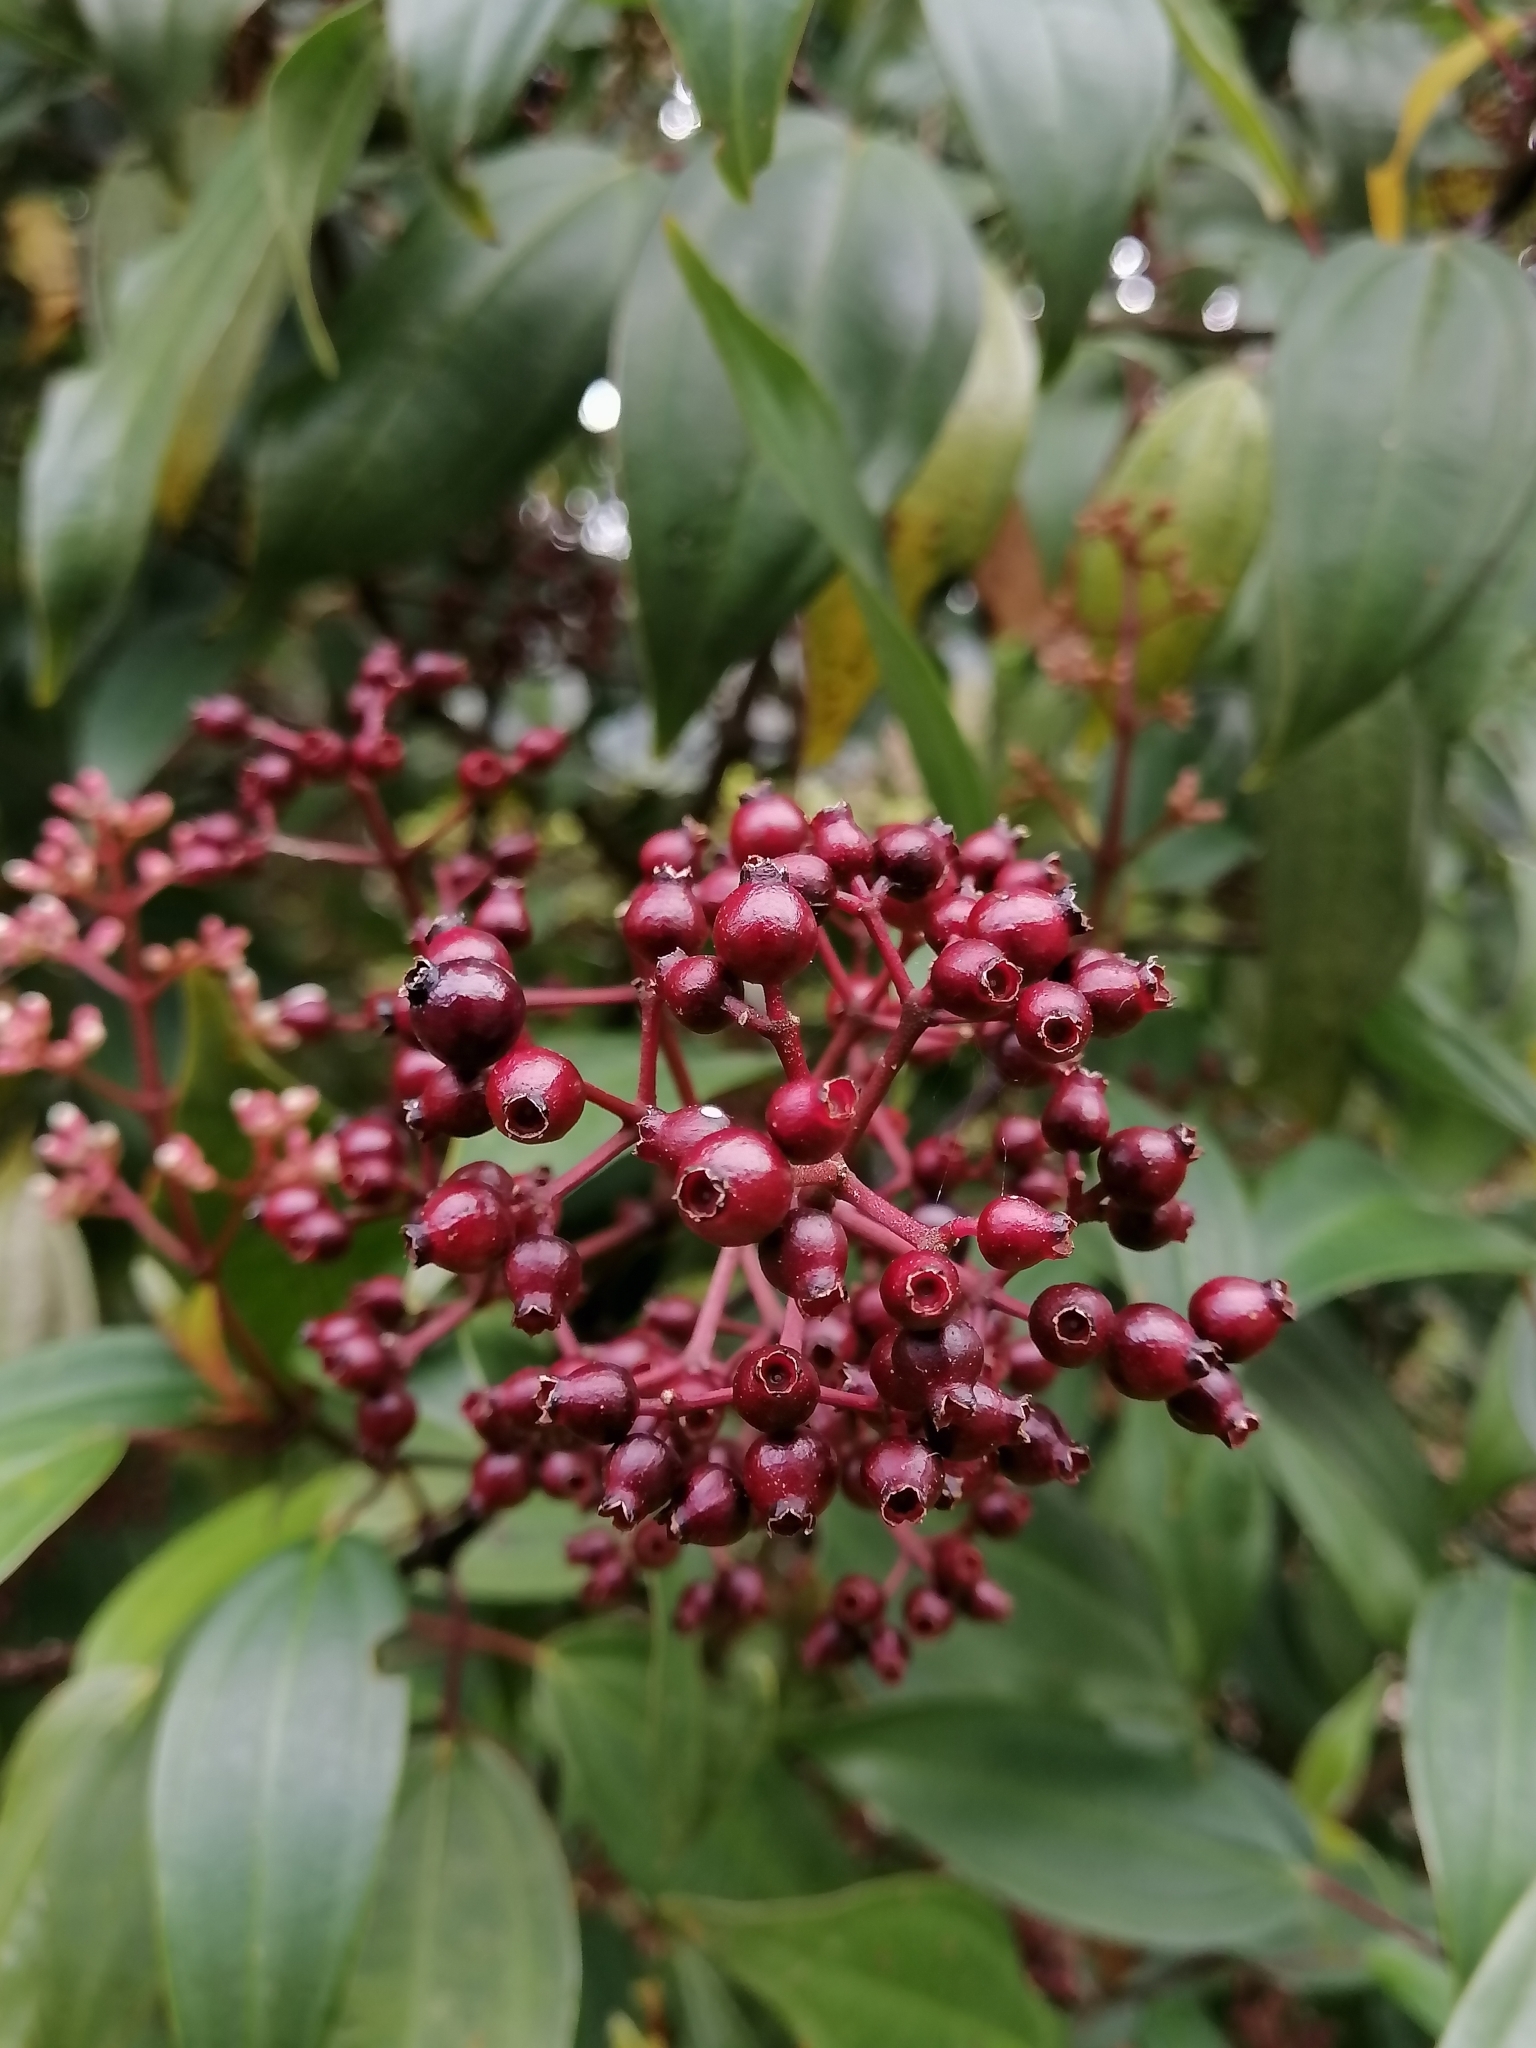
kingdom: Plantae
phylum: Tracheophyta
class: Magnoliopsida
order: Myrtales
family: Melastomataceae
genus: Miconia
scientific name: Miconia mexicana
